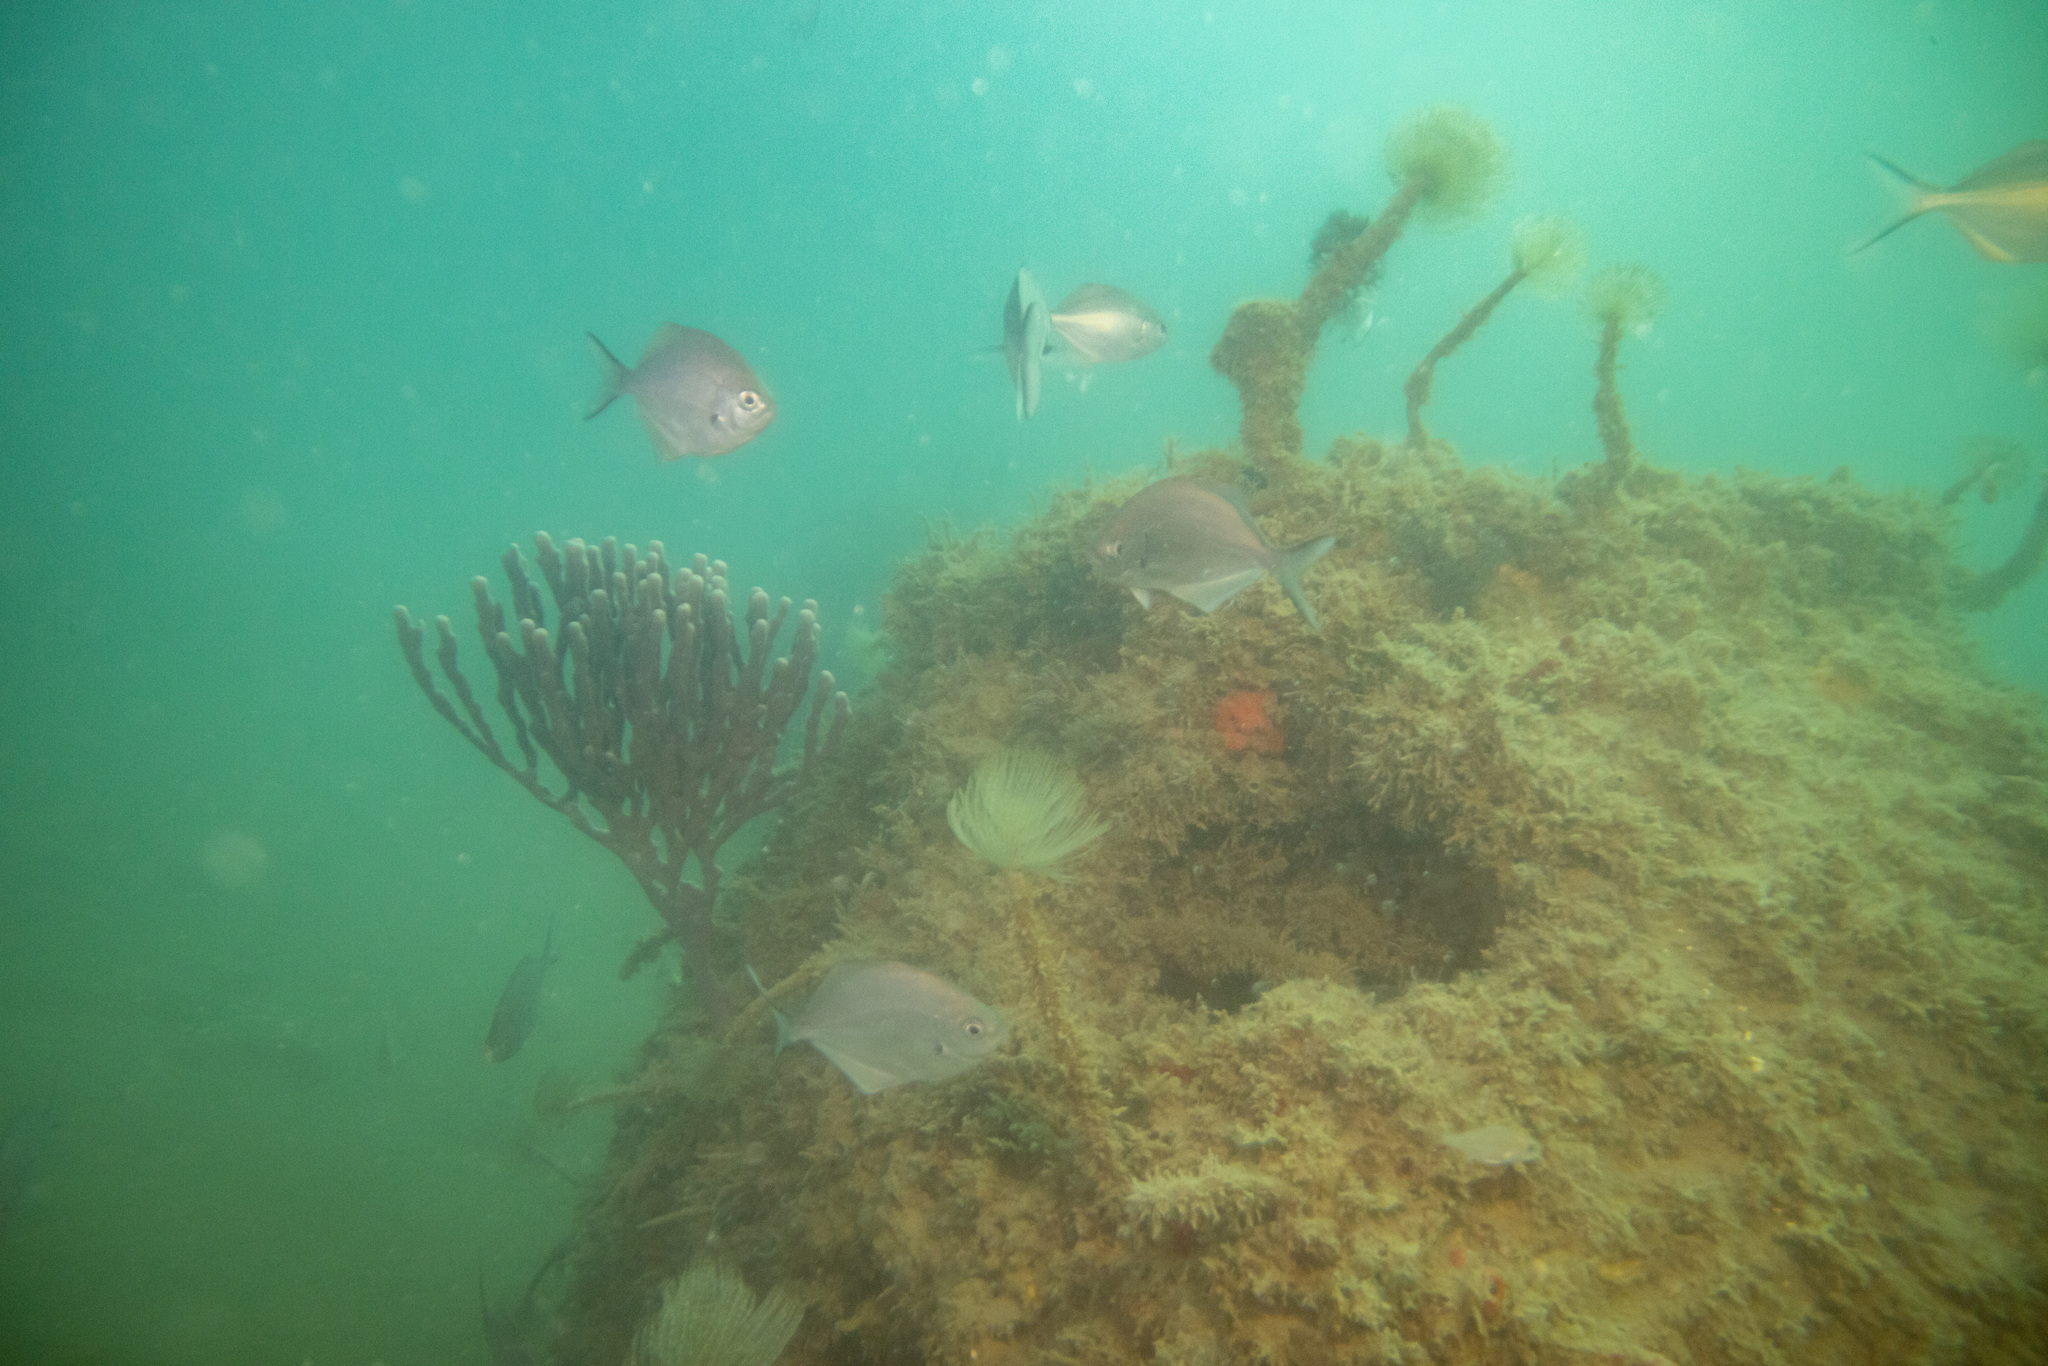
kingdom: Animalia
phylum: Porifera
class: Demospongiae
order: Haplosclerida
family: Callyspongiidae
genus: Callyspongia
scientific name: Callyspongia nuda
